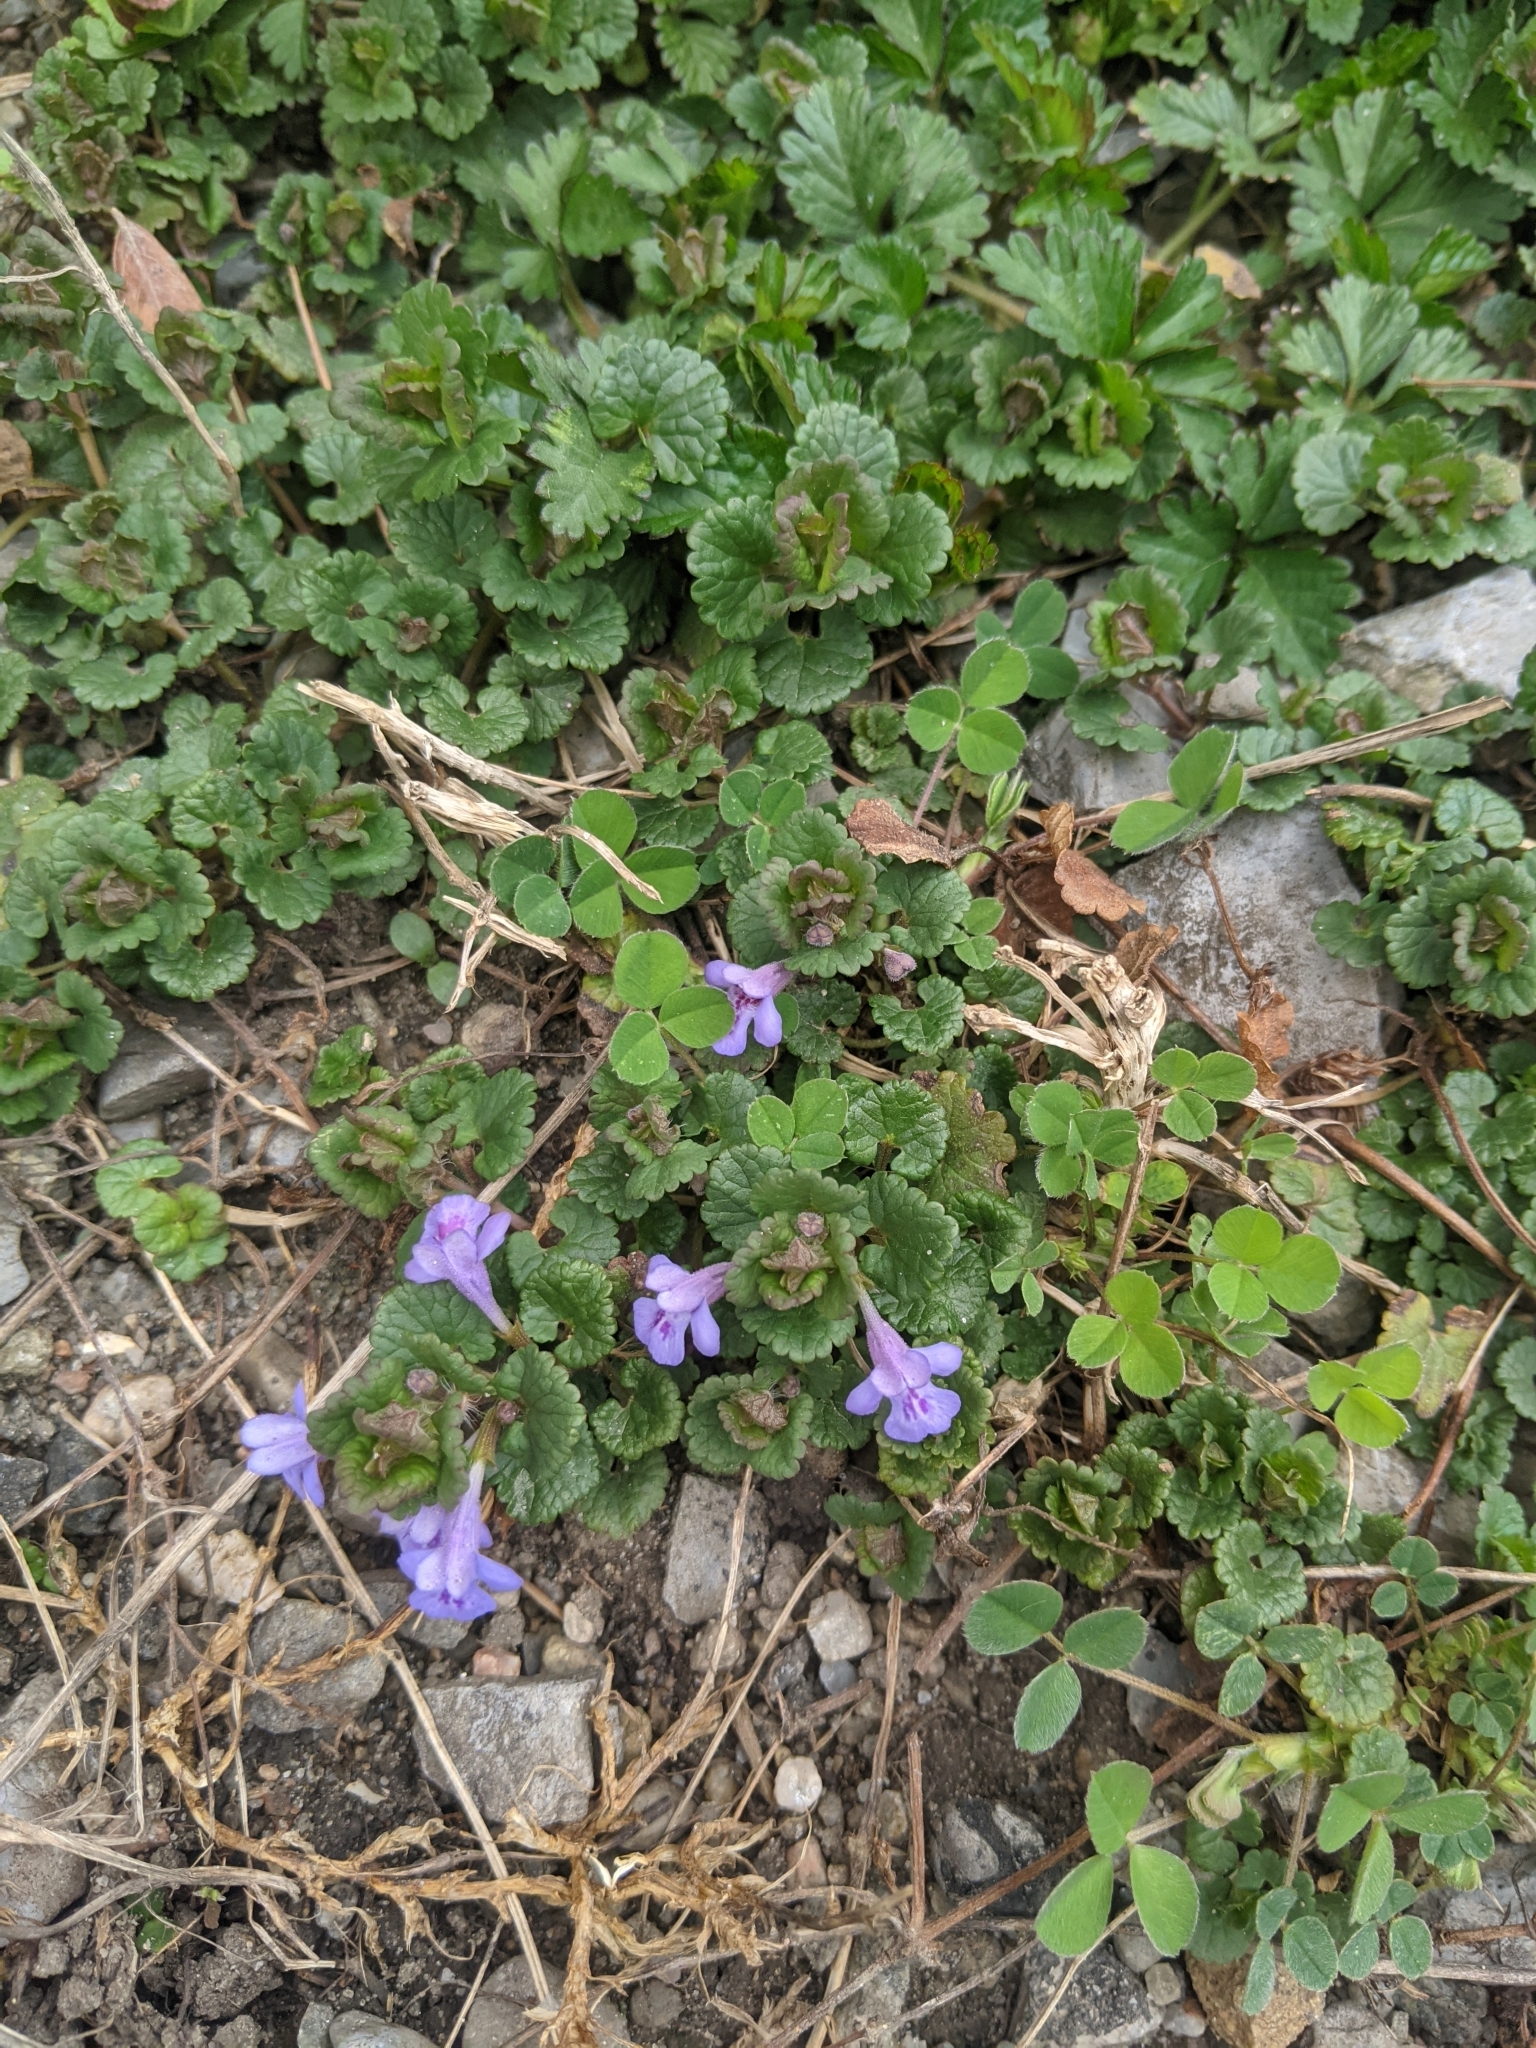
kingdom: Plantae
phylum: Tracheophyta
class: Magnoliopsida
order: Lamiales
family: Lamiaceae
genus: Glechoma
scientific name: Glechoma hederacea
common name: Ground ivy
